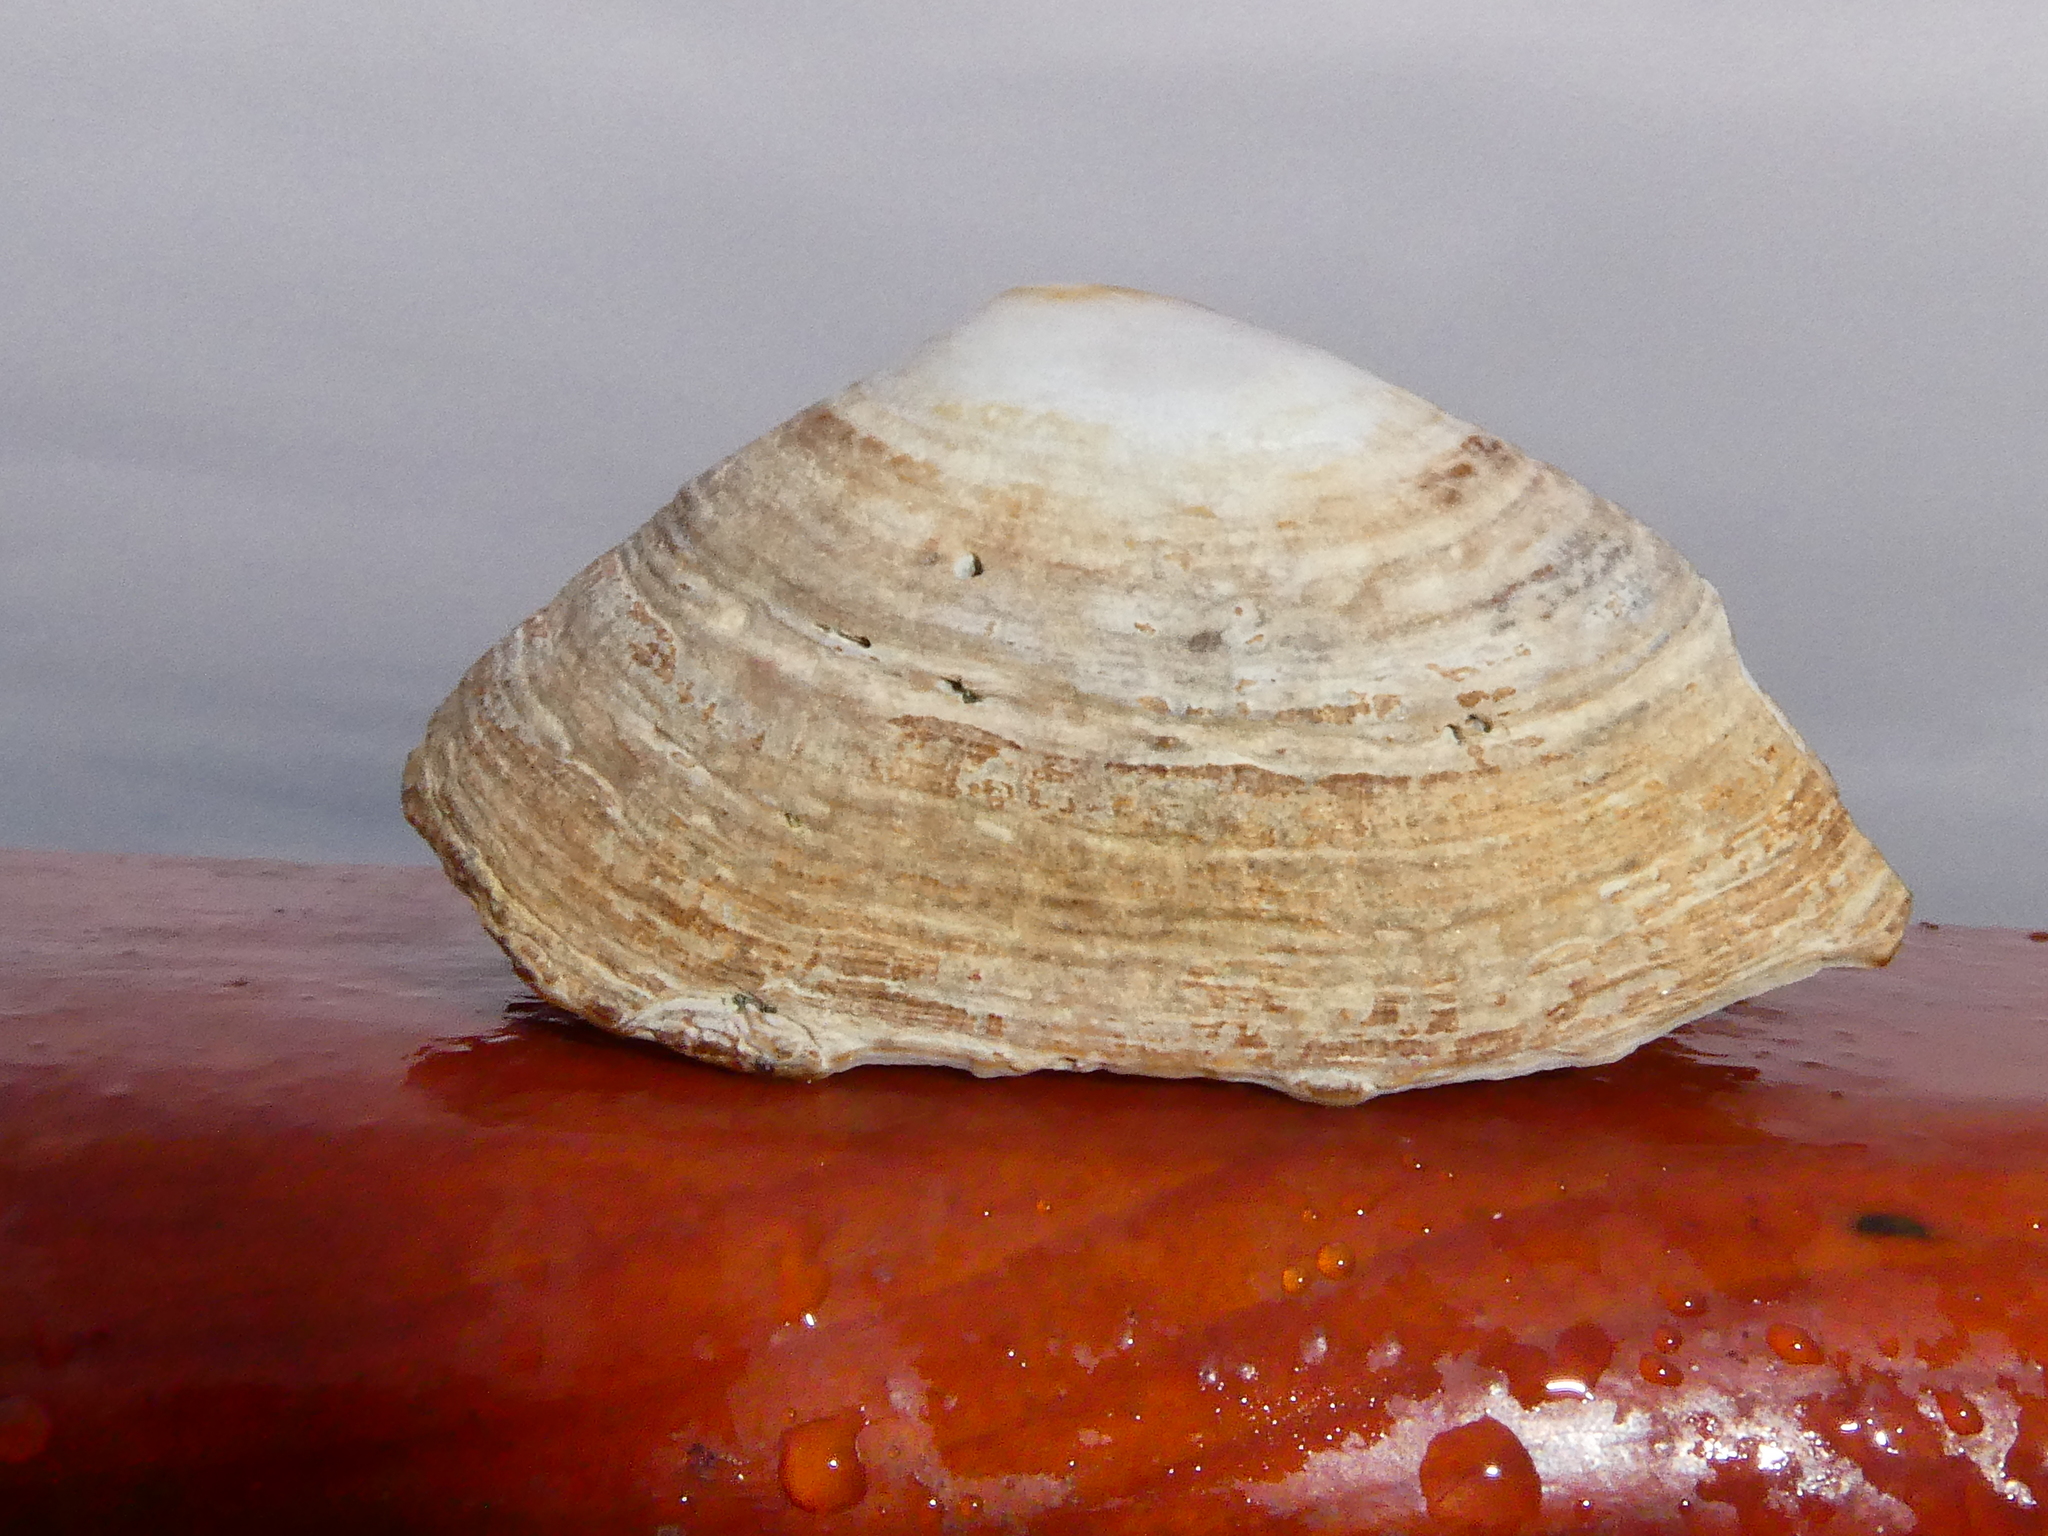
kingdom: Animalia
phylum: Mollusca
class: Gastropoda
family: Lottiidae
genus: Lottia
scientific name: Lottia instabilis
